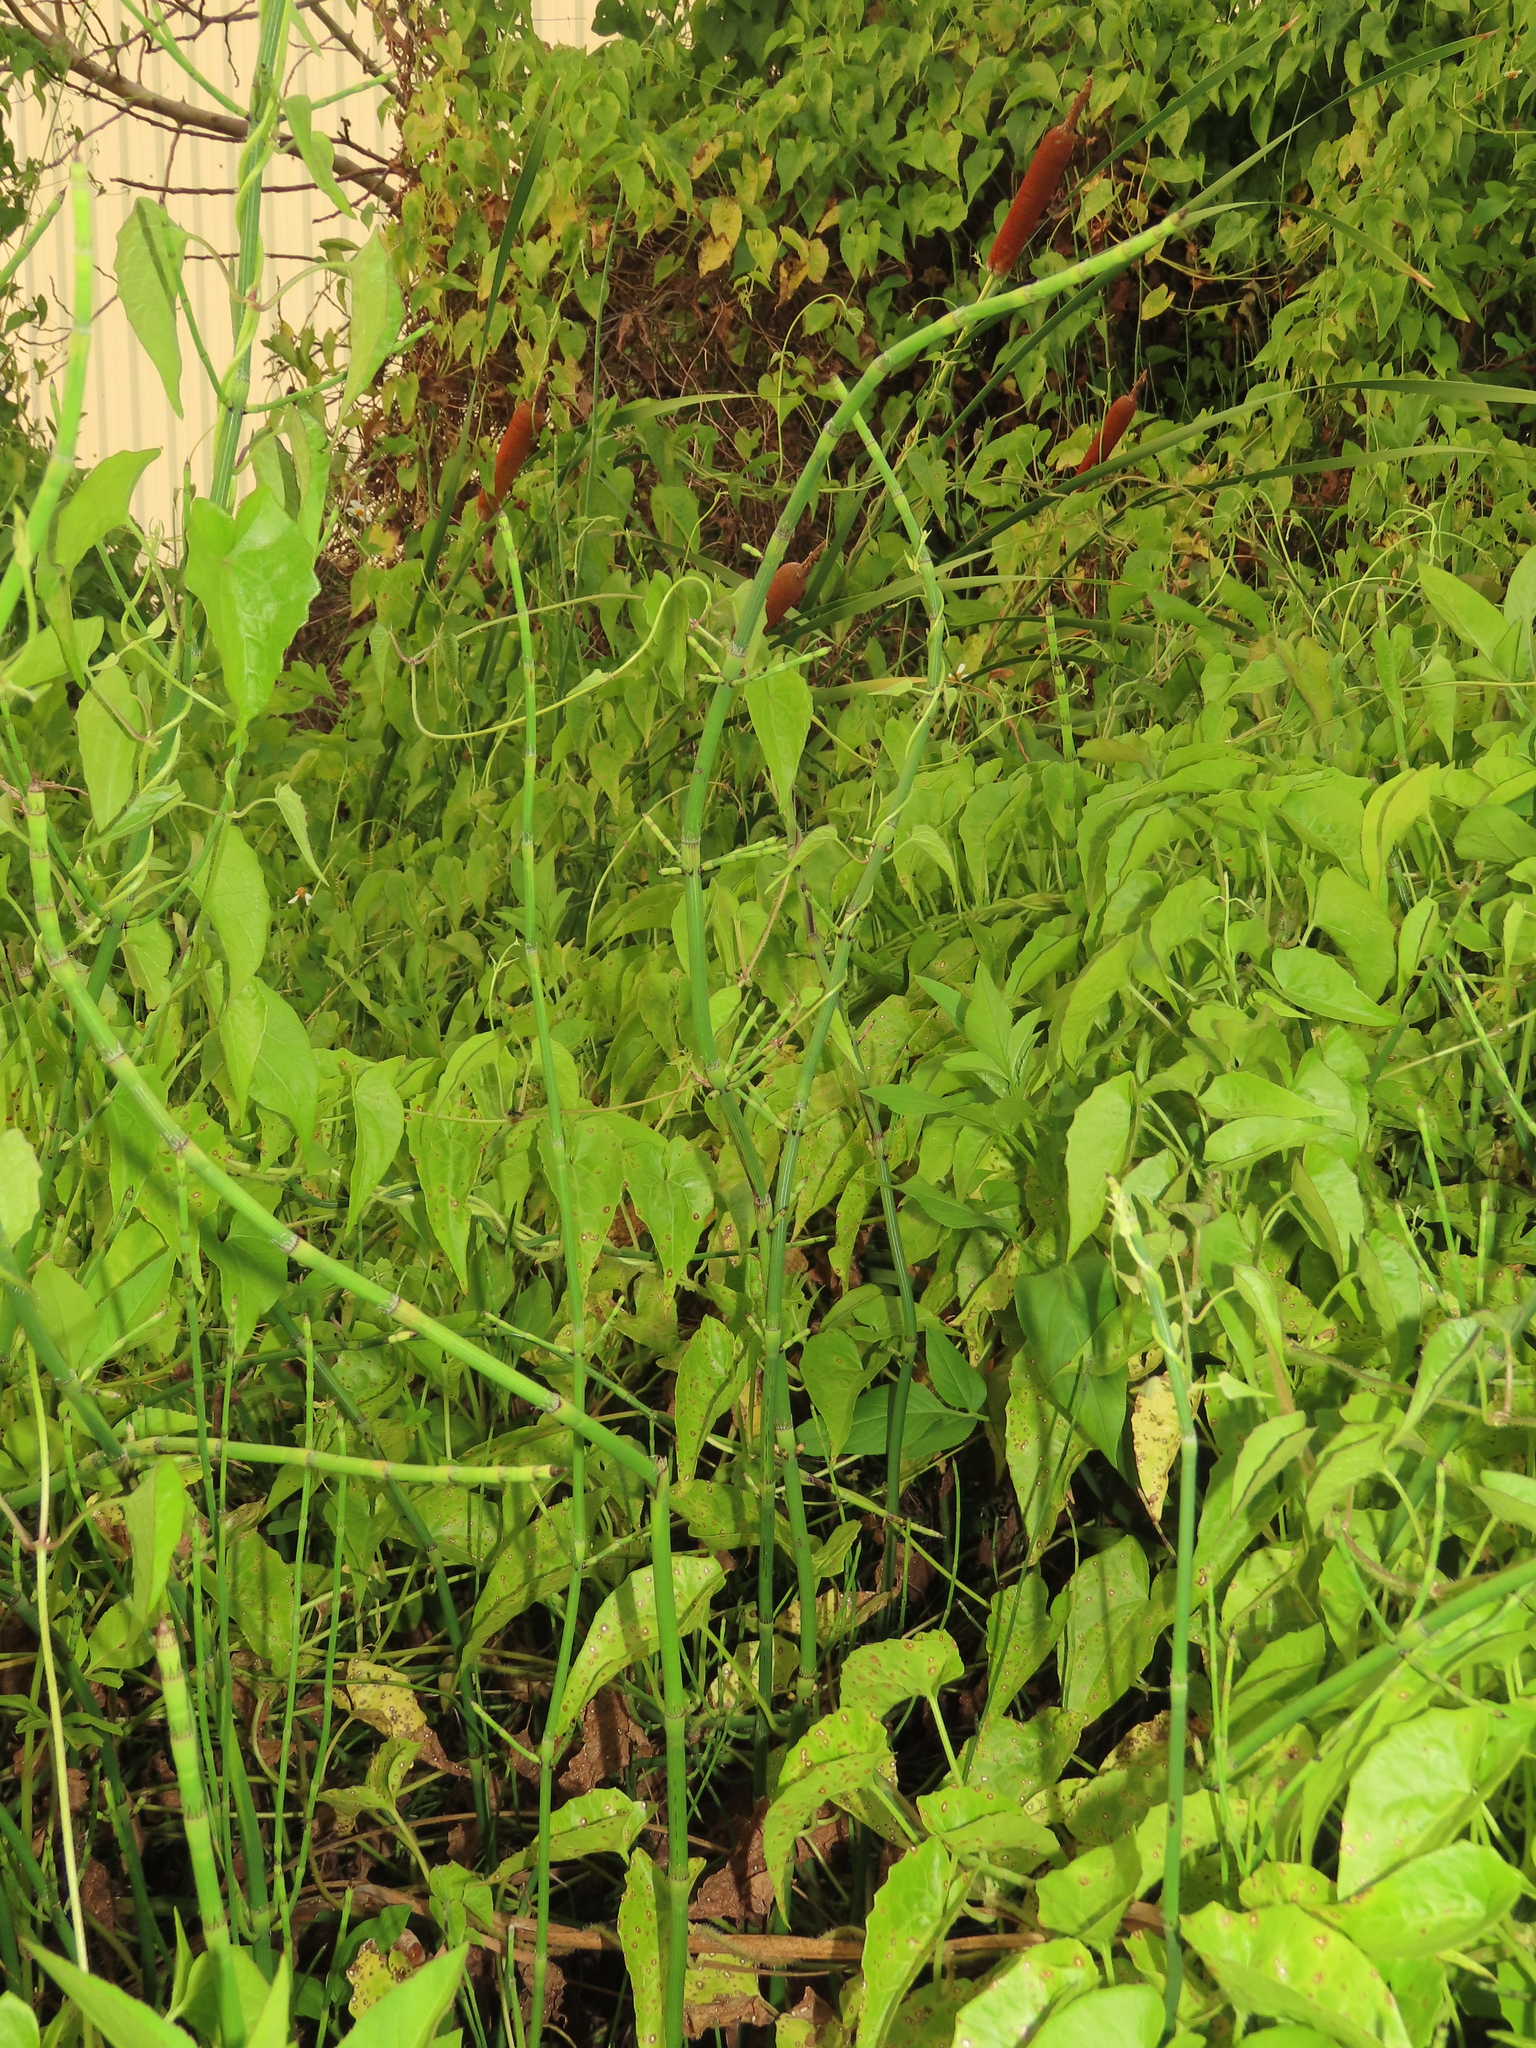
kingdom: Plantae
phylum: Tracheophyta
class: Polypodiopsida
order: Equisetales
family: Equisetaceae
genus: Equisetum
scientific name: Equisetum ramosissimum
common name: Branched horsetail
